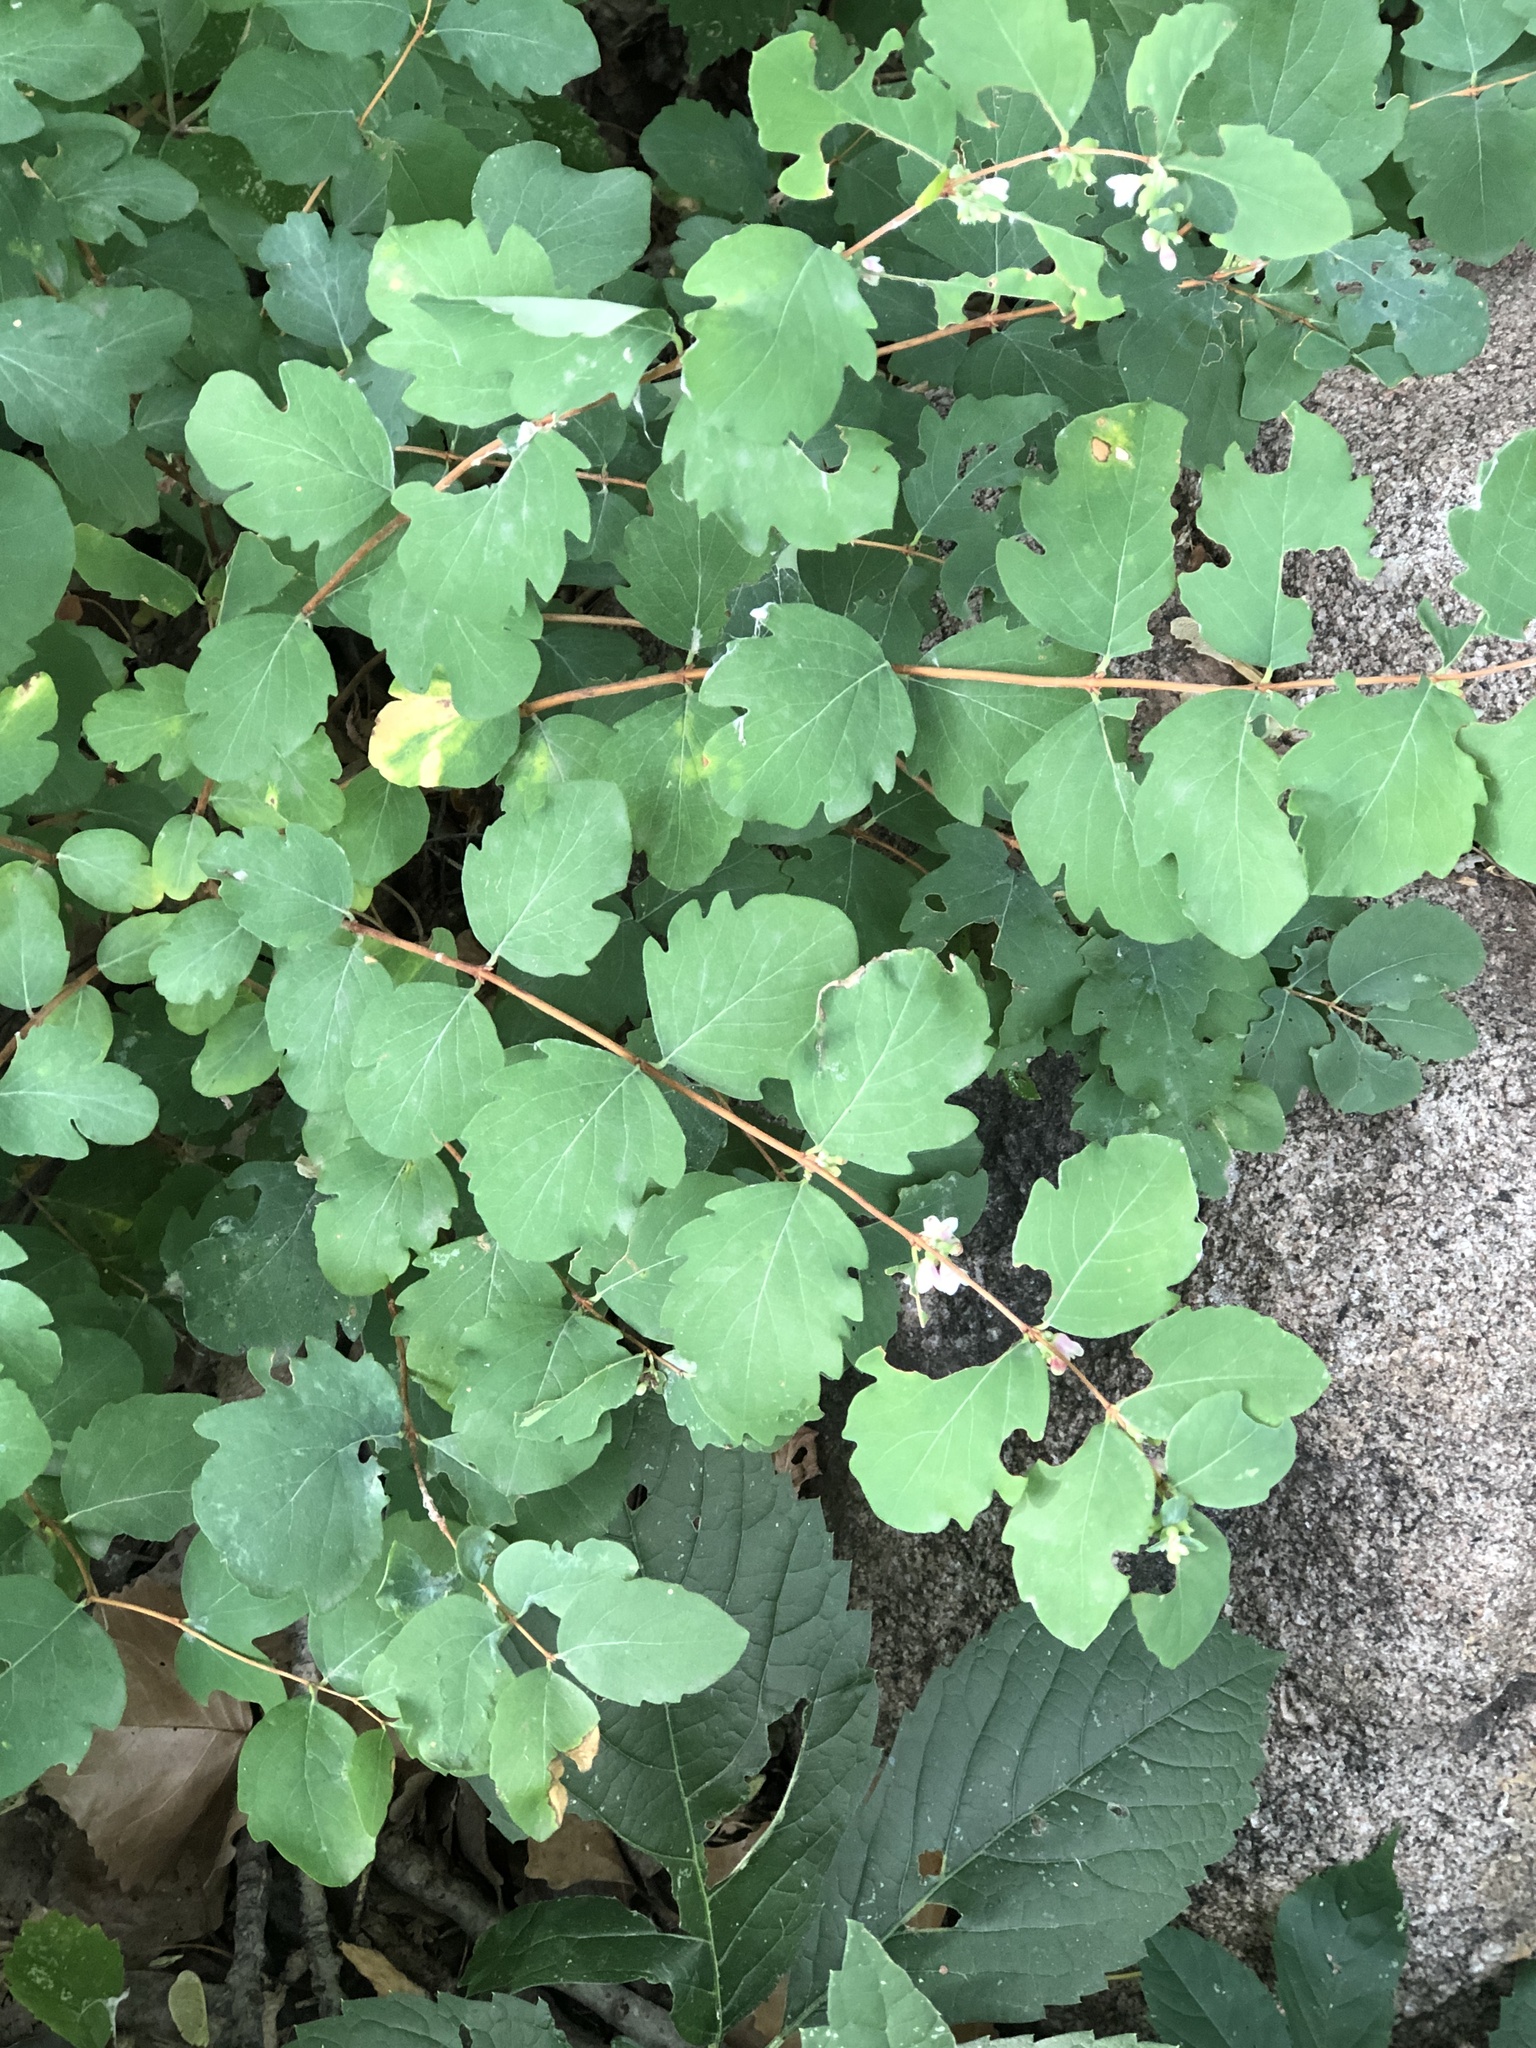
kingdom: Plantae
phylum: Tracheophyta
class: Magnoliopsida
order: Dipsacales
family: Caprifoliaceae
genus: Symphoricarpos
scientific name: Symphoricarpos occidentalis
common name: Wolfberry
